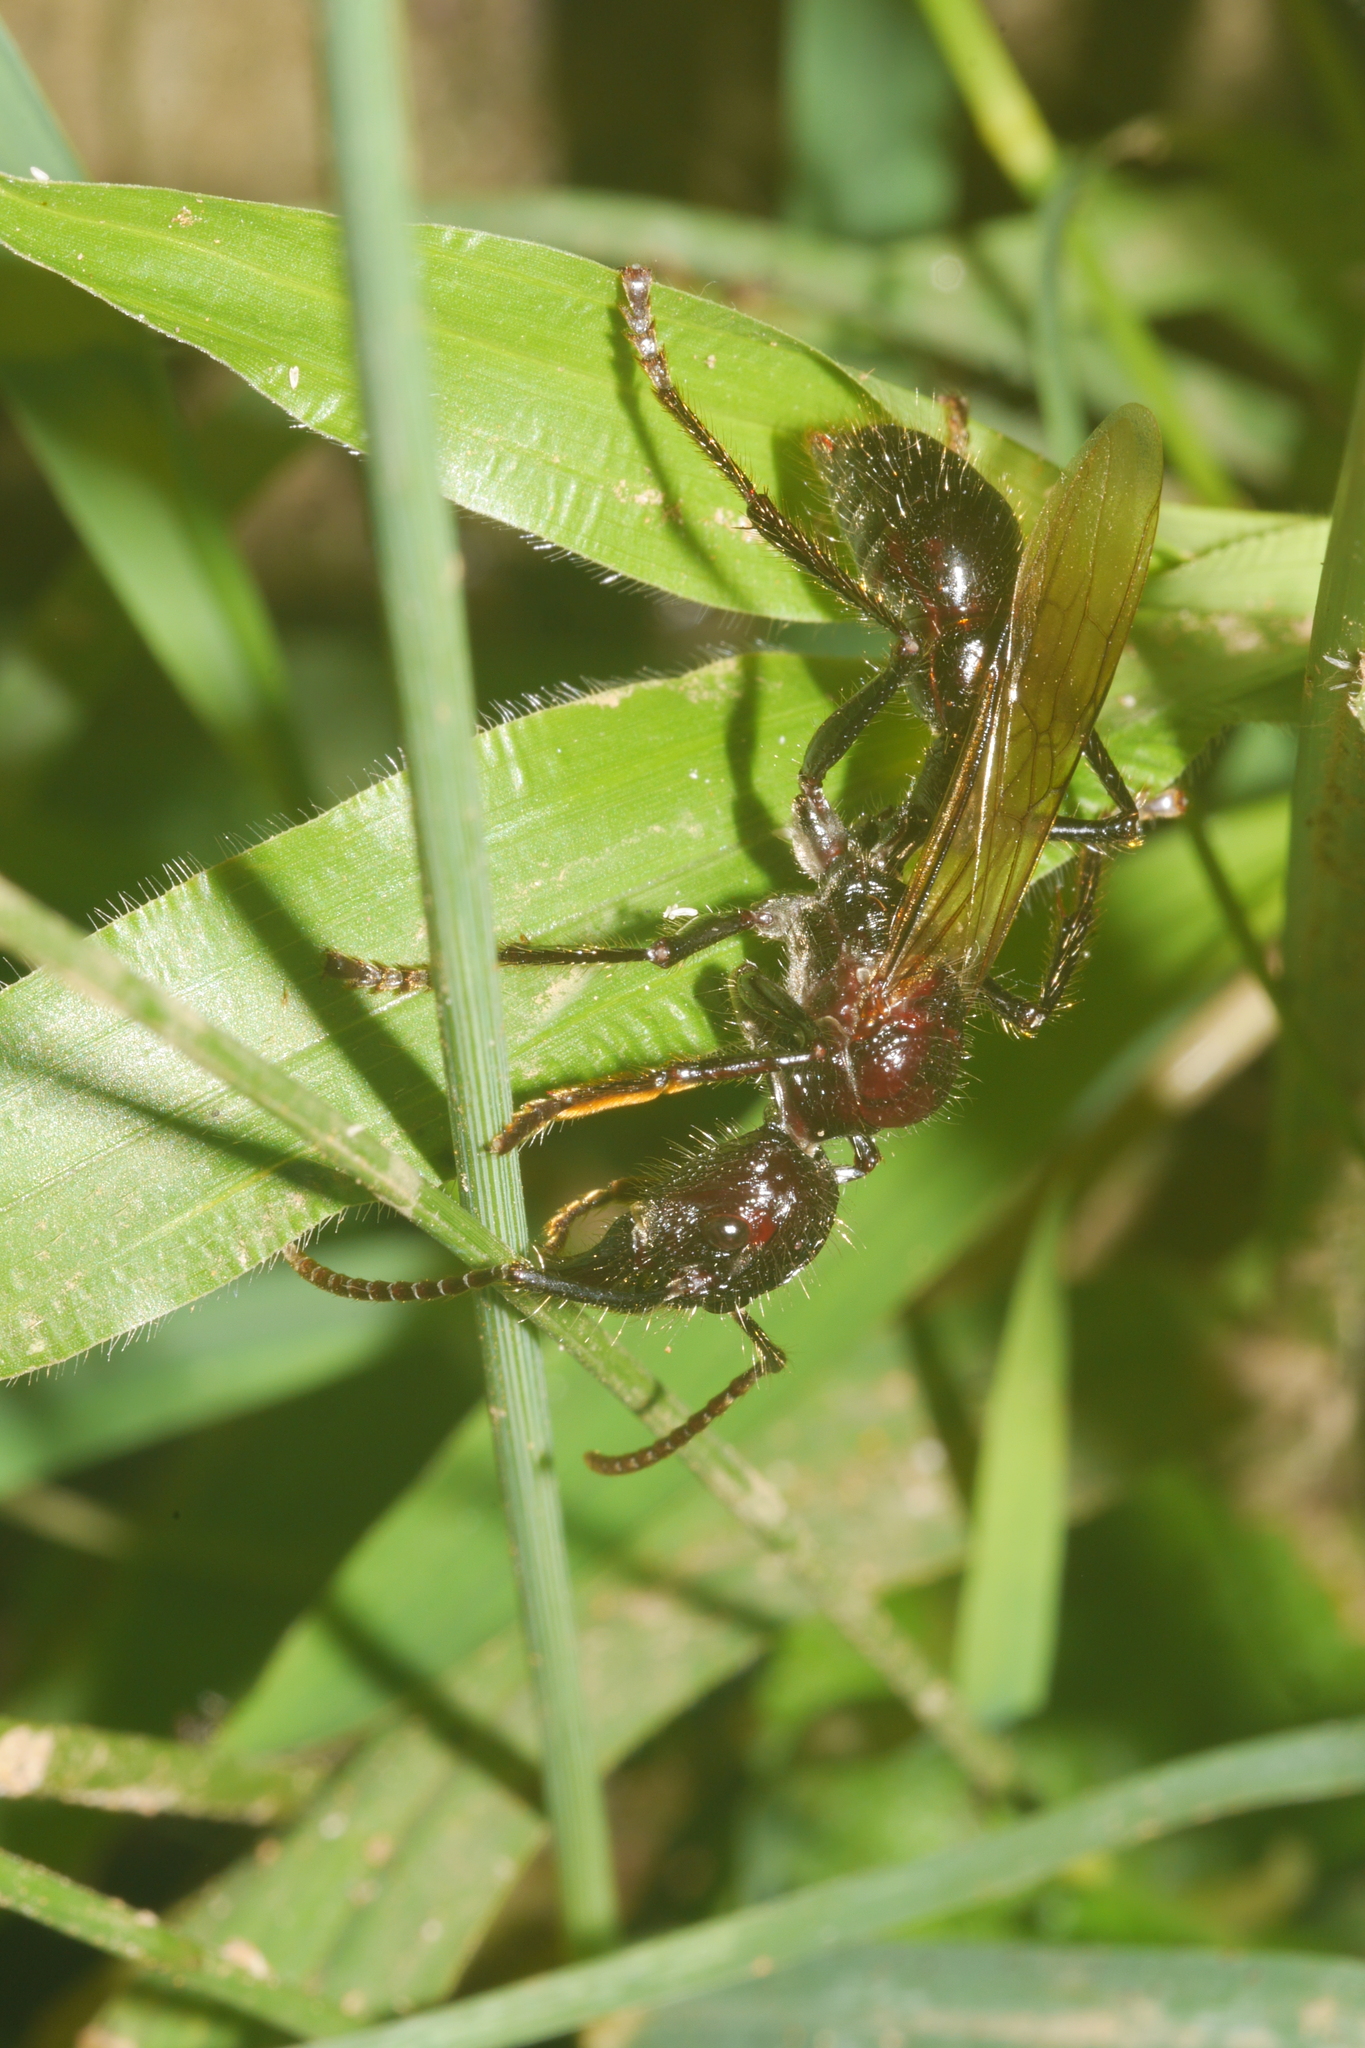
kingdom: Animalia
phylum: Arthropoda
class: Insecta
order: Hymenoptera
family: Formicidae
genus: Paraponera
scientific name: Paraponera clavata
